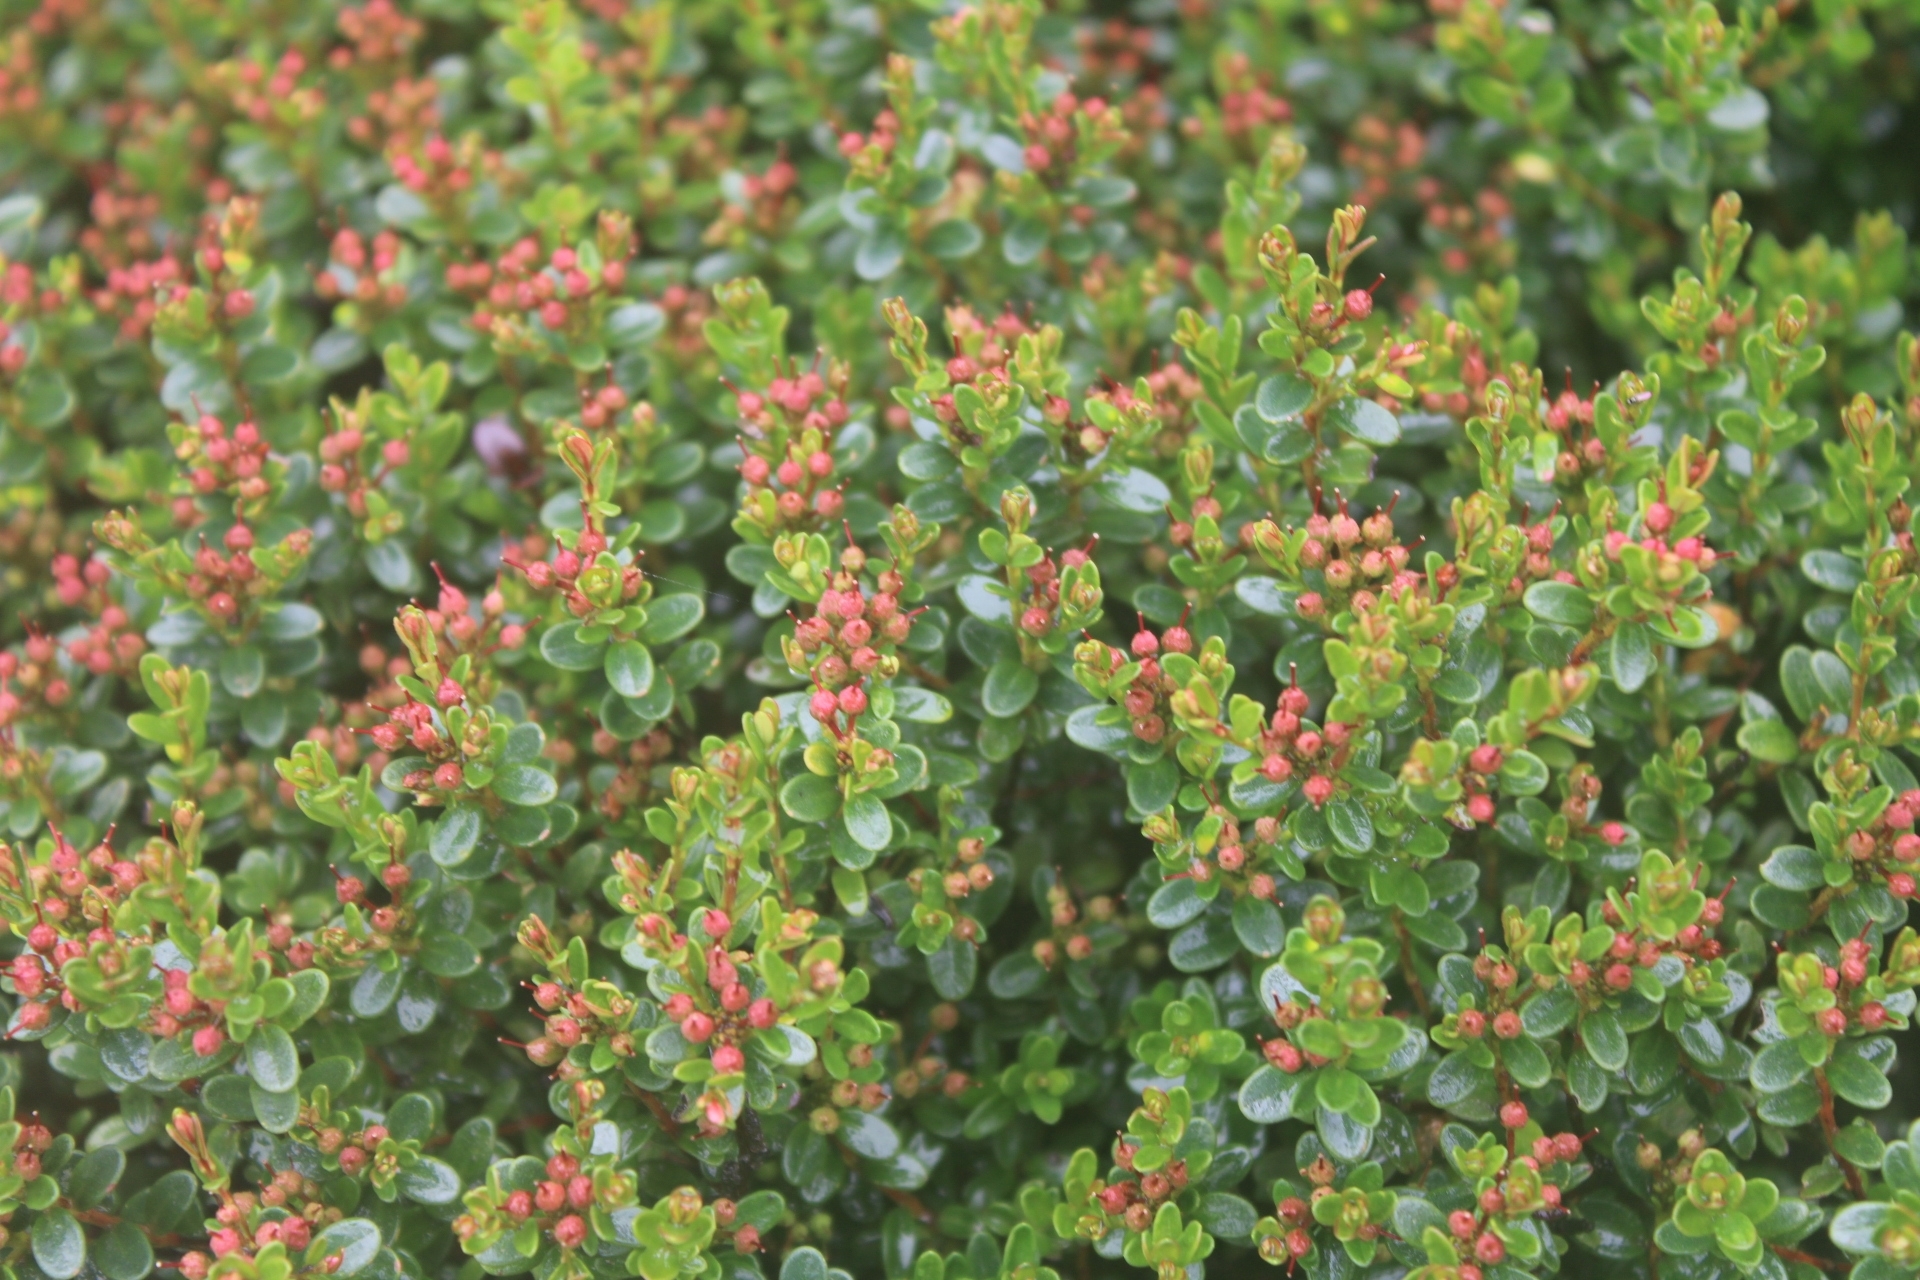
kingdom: Plantae
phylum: Tracheophyta
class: Magnoliopsida
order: Ericales
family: Ericaceae
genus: Kalmia
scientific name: Kalmia buxifolia
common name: Sandmyrtle
